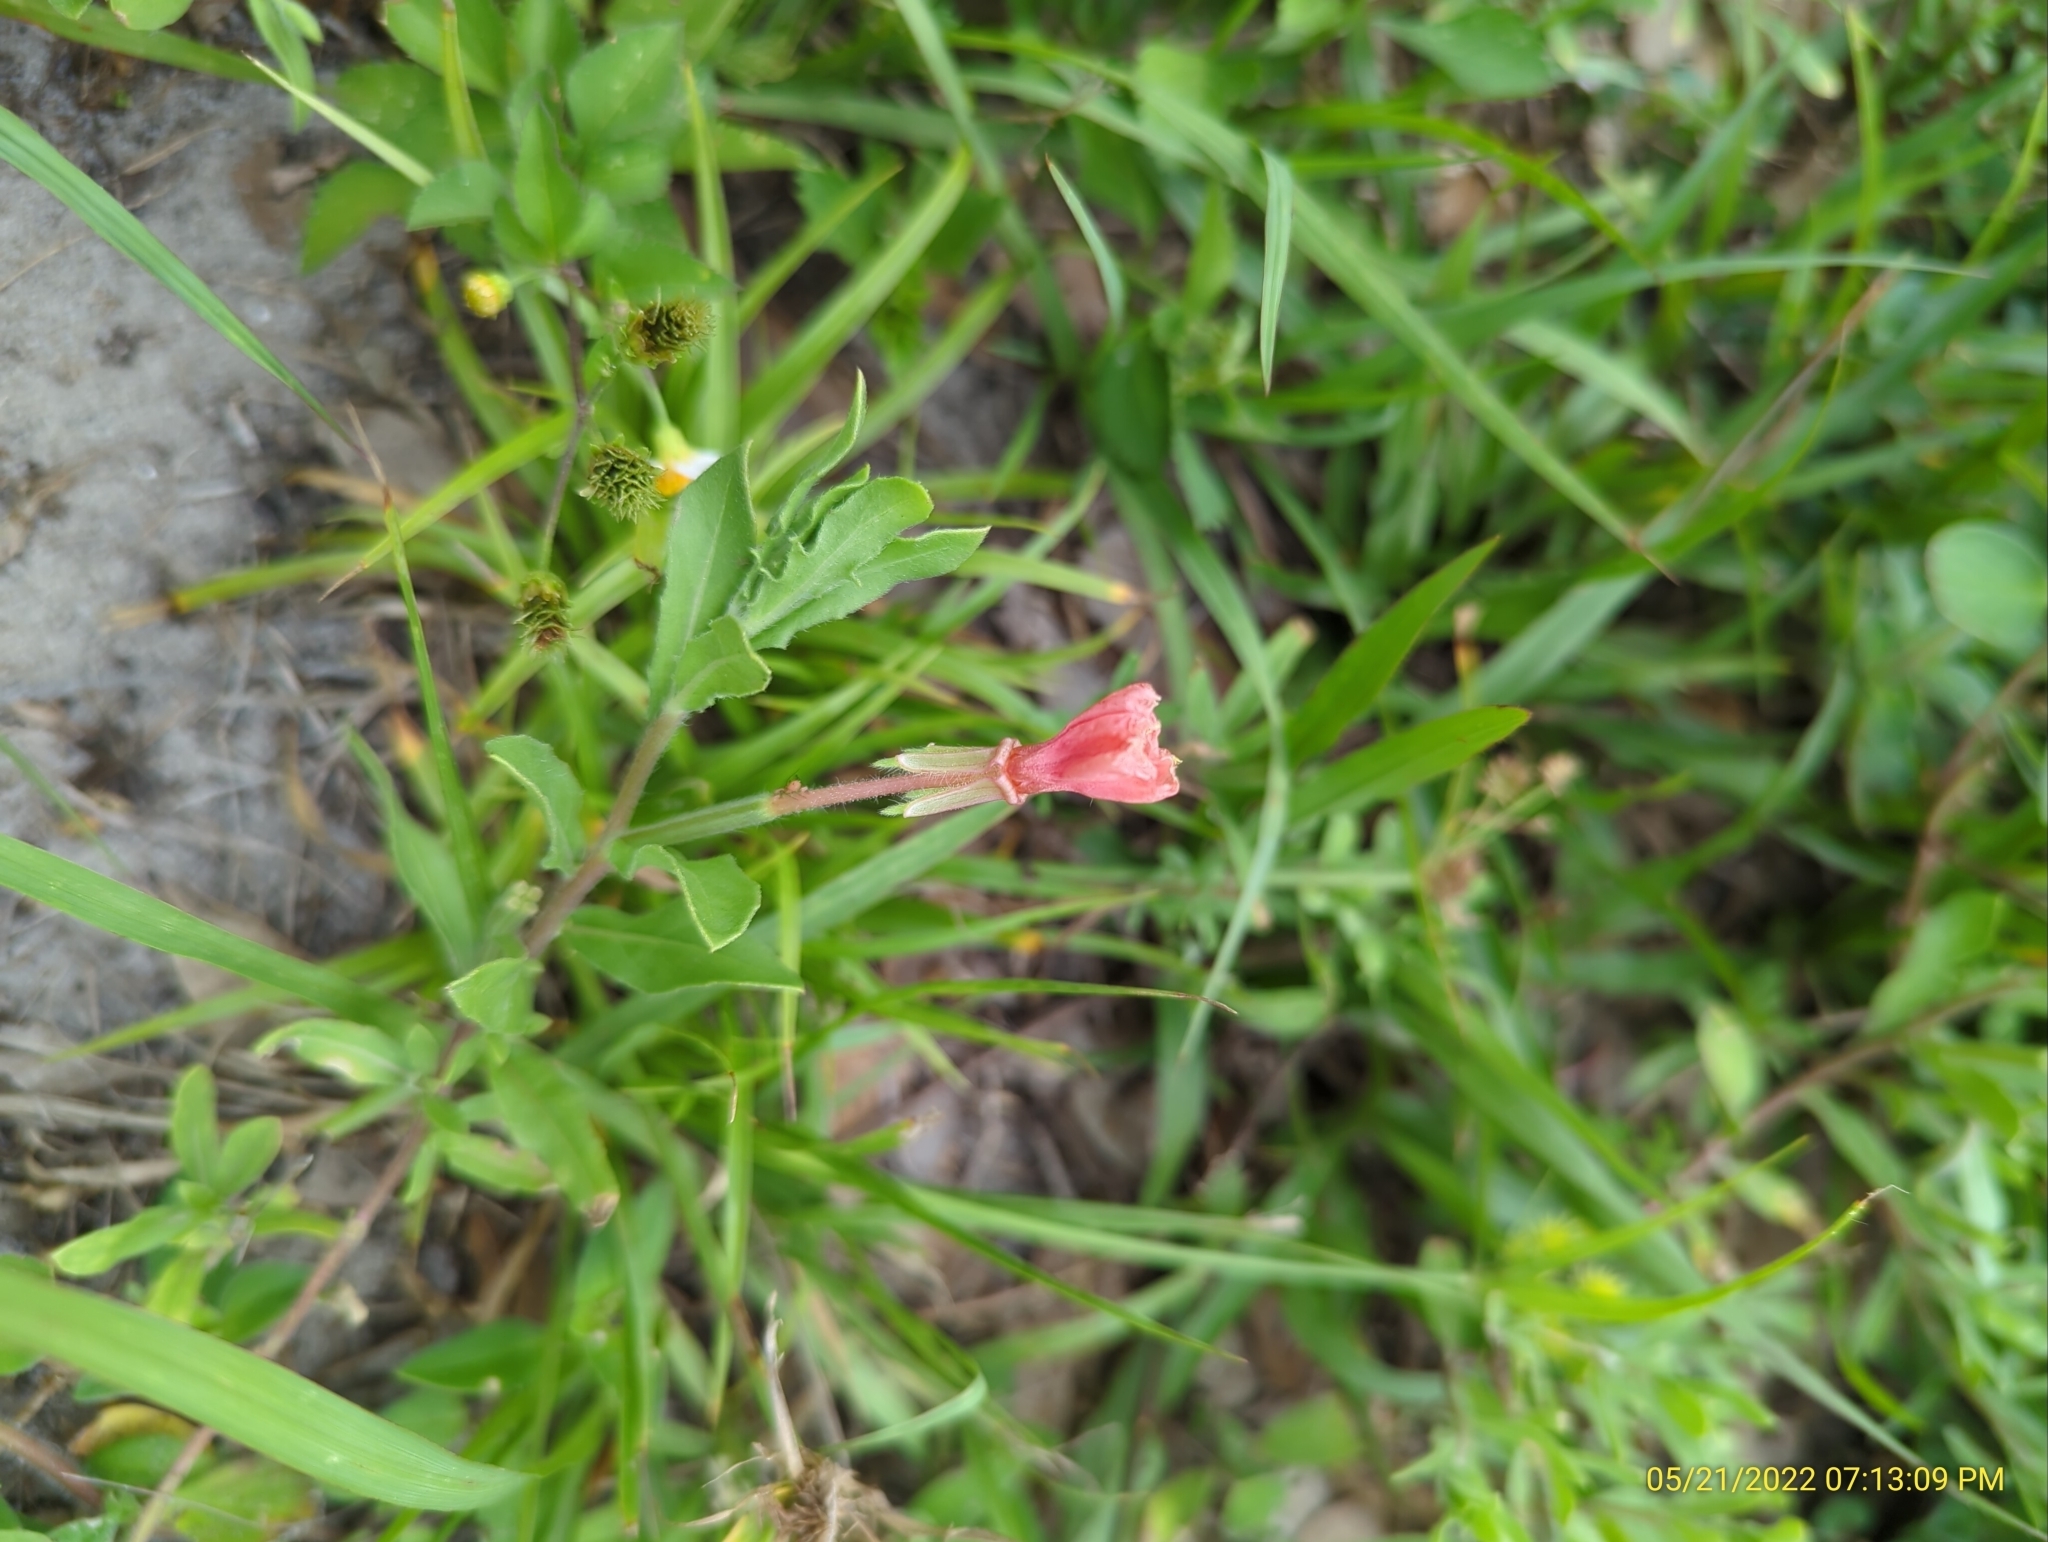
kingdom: Plantae
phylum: Tracheophyta
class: Magnoliopsida
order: Myrtales
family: Onagraceae
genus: Oenothera
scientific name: Oenothera laciniata
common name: Cut-leaved evening-primrose
